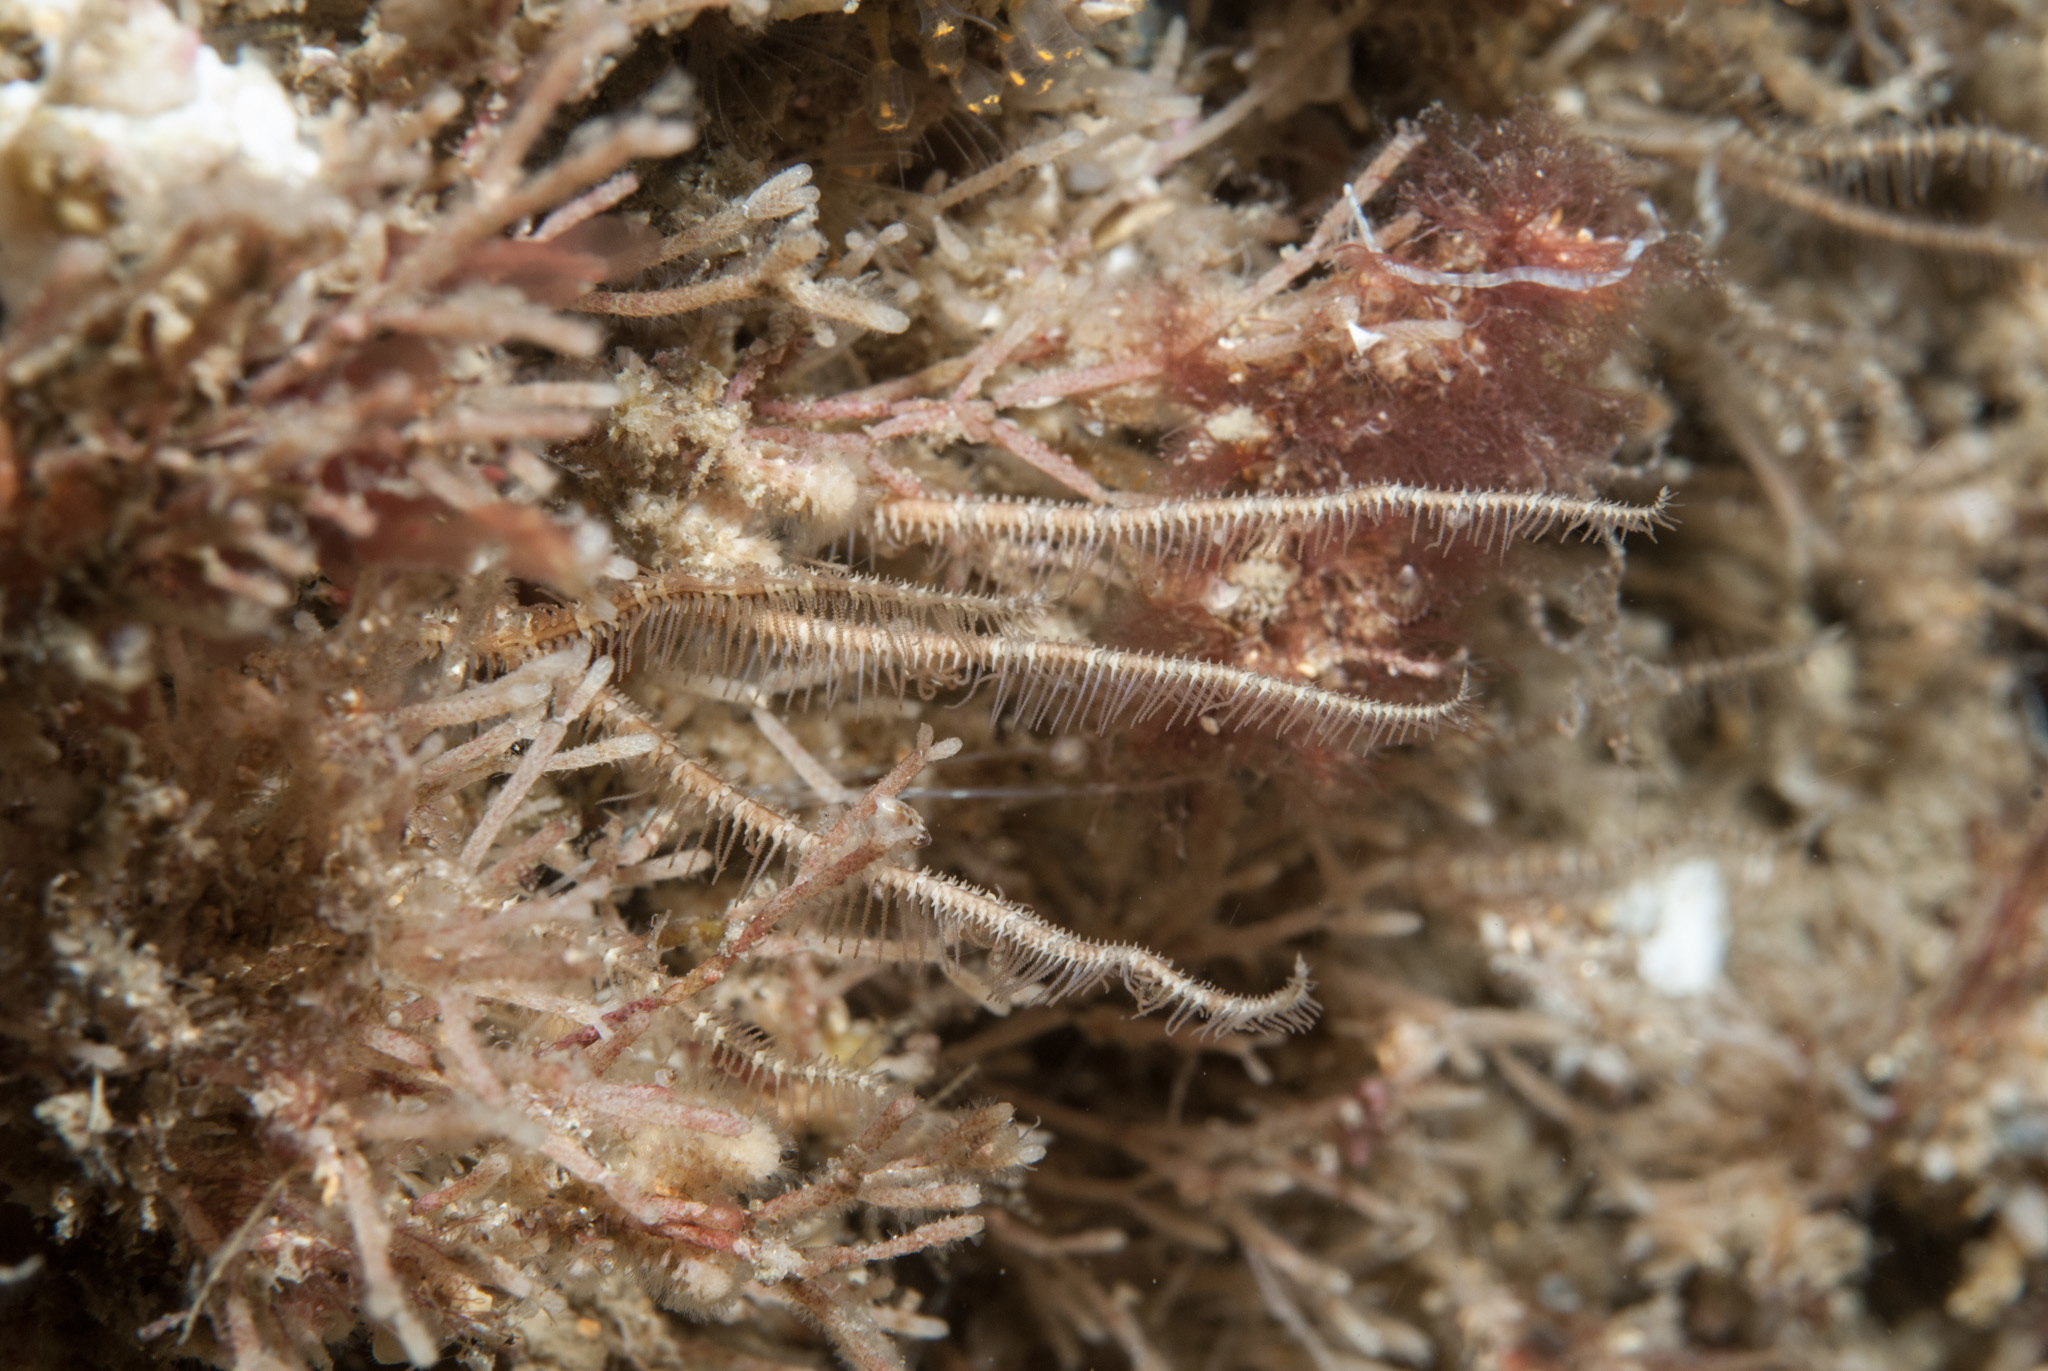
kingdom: Animalia
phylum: Echinodermata
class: Ophiuroidea
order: Amphilepidida
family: Ophiopsilidae
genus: Ophiopsila
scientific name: Ophiopsila aranea
